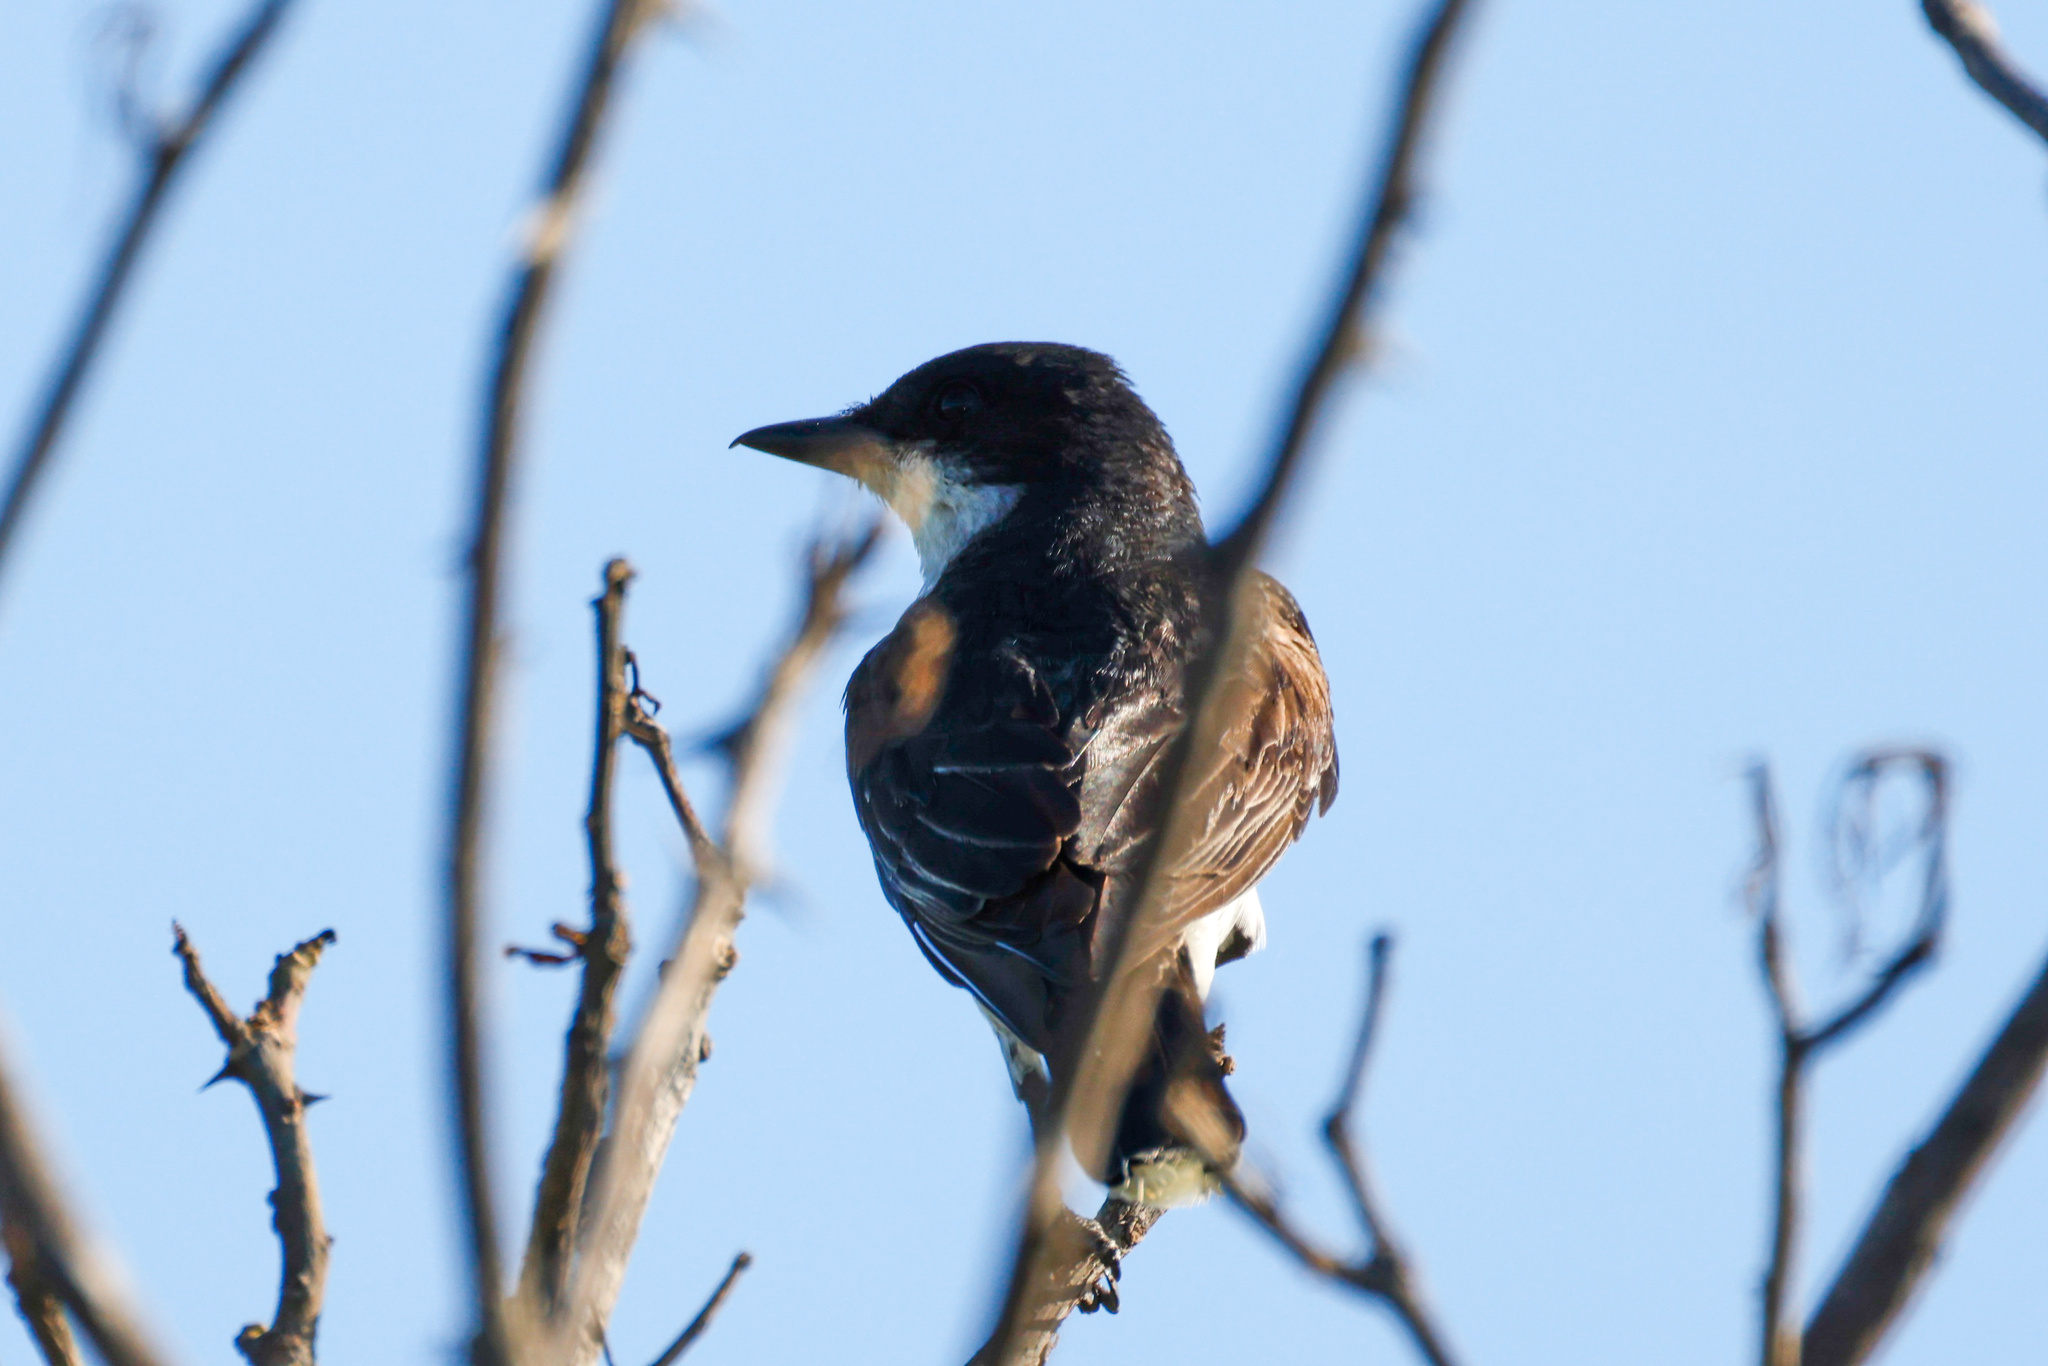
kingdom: Animalia
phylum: Chordata
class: Aves
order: Passeriformes
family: Tyrannidae
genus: Tyrannus
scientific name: Tyrannus tyrannus
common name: Eastern kingbird
